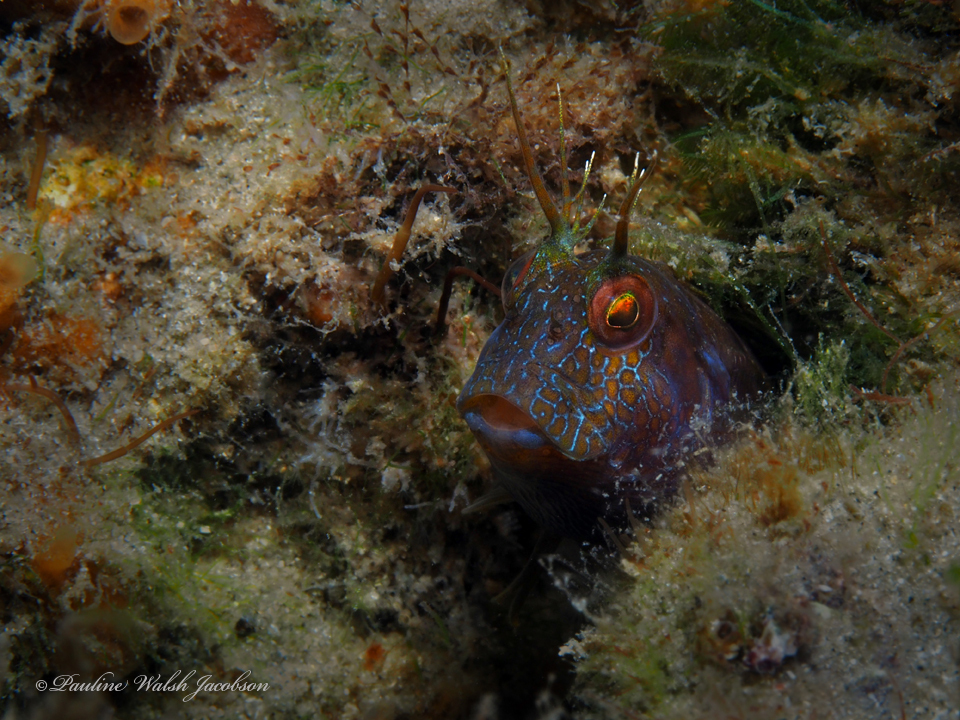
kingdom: Animalia
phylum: Chordata
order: Perciformes
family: Blenniidae
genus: Parablennius
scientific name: Parablennius marmoreus
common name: Seaweed blenny
